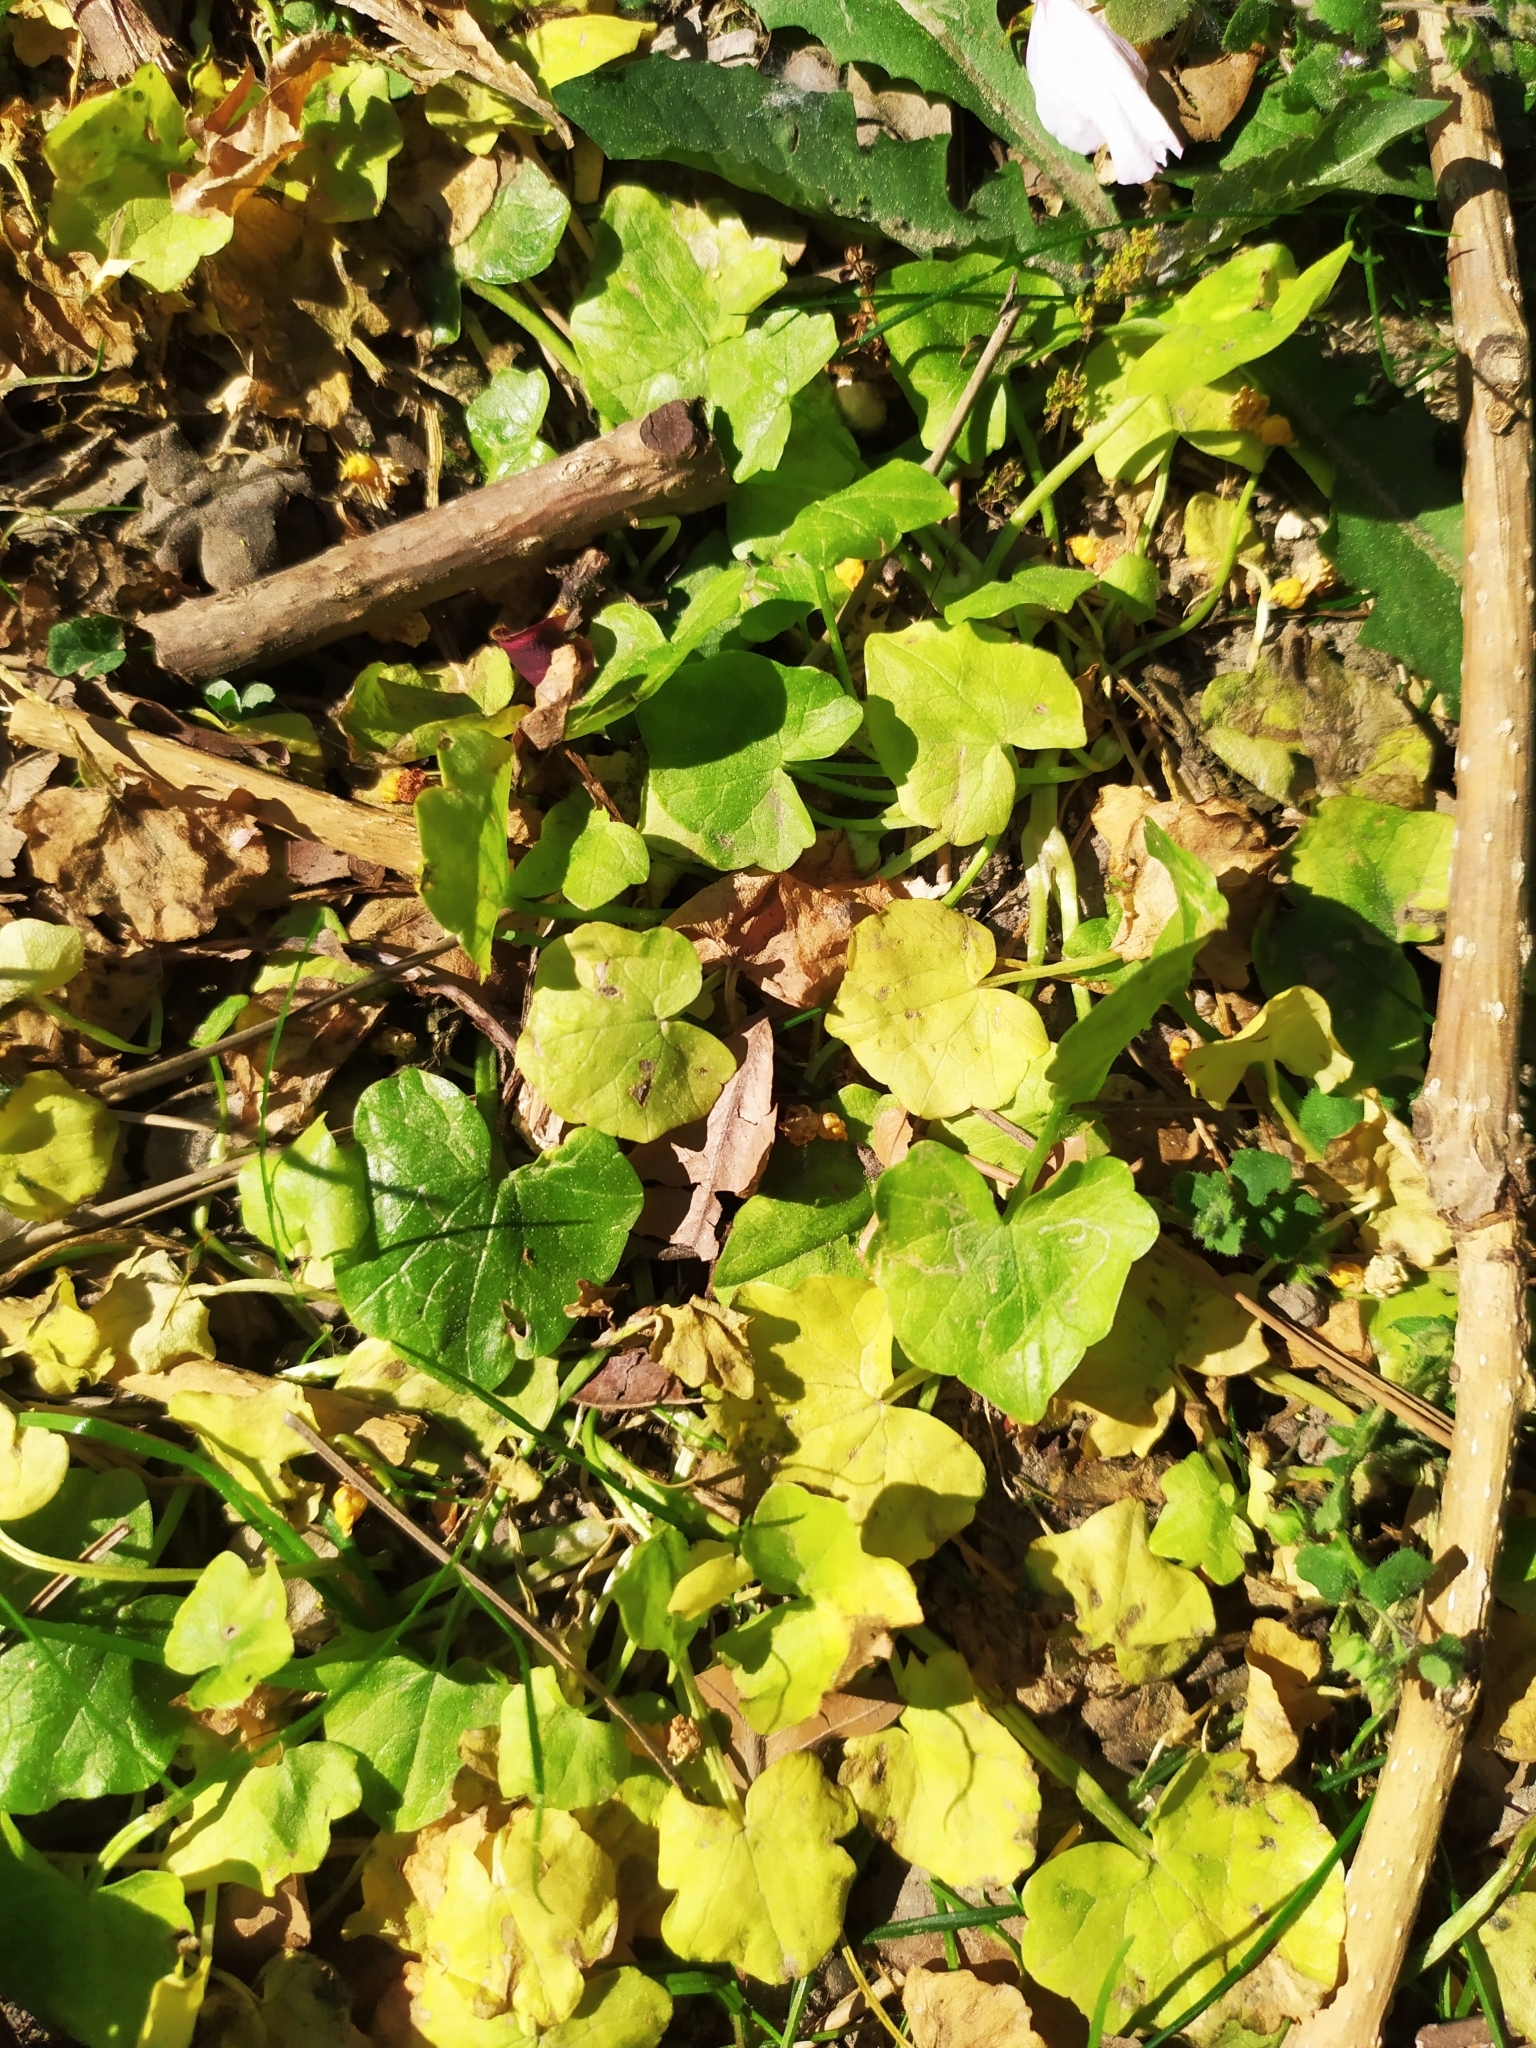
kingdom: Plantae
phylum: Tracheophyta
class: Magnoliopsida
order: Ranunculales
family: Ranunculaceae
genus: Ficaria
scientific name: Ficaria verna
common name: Lesser celandine
